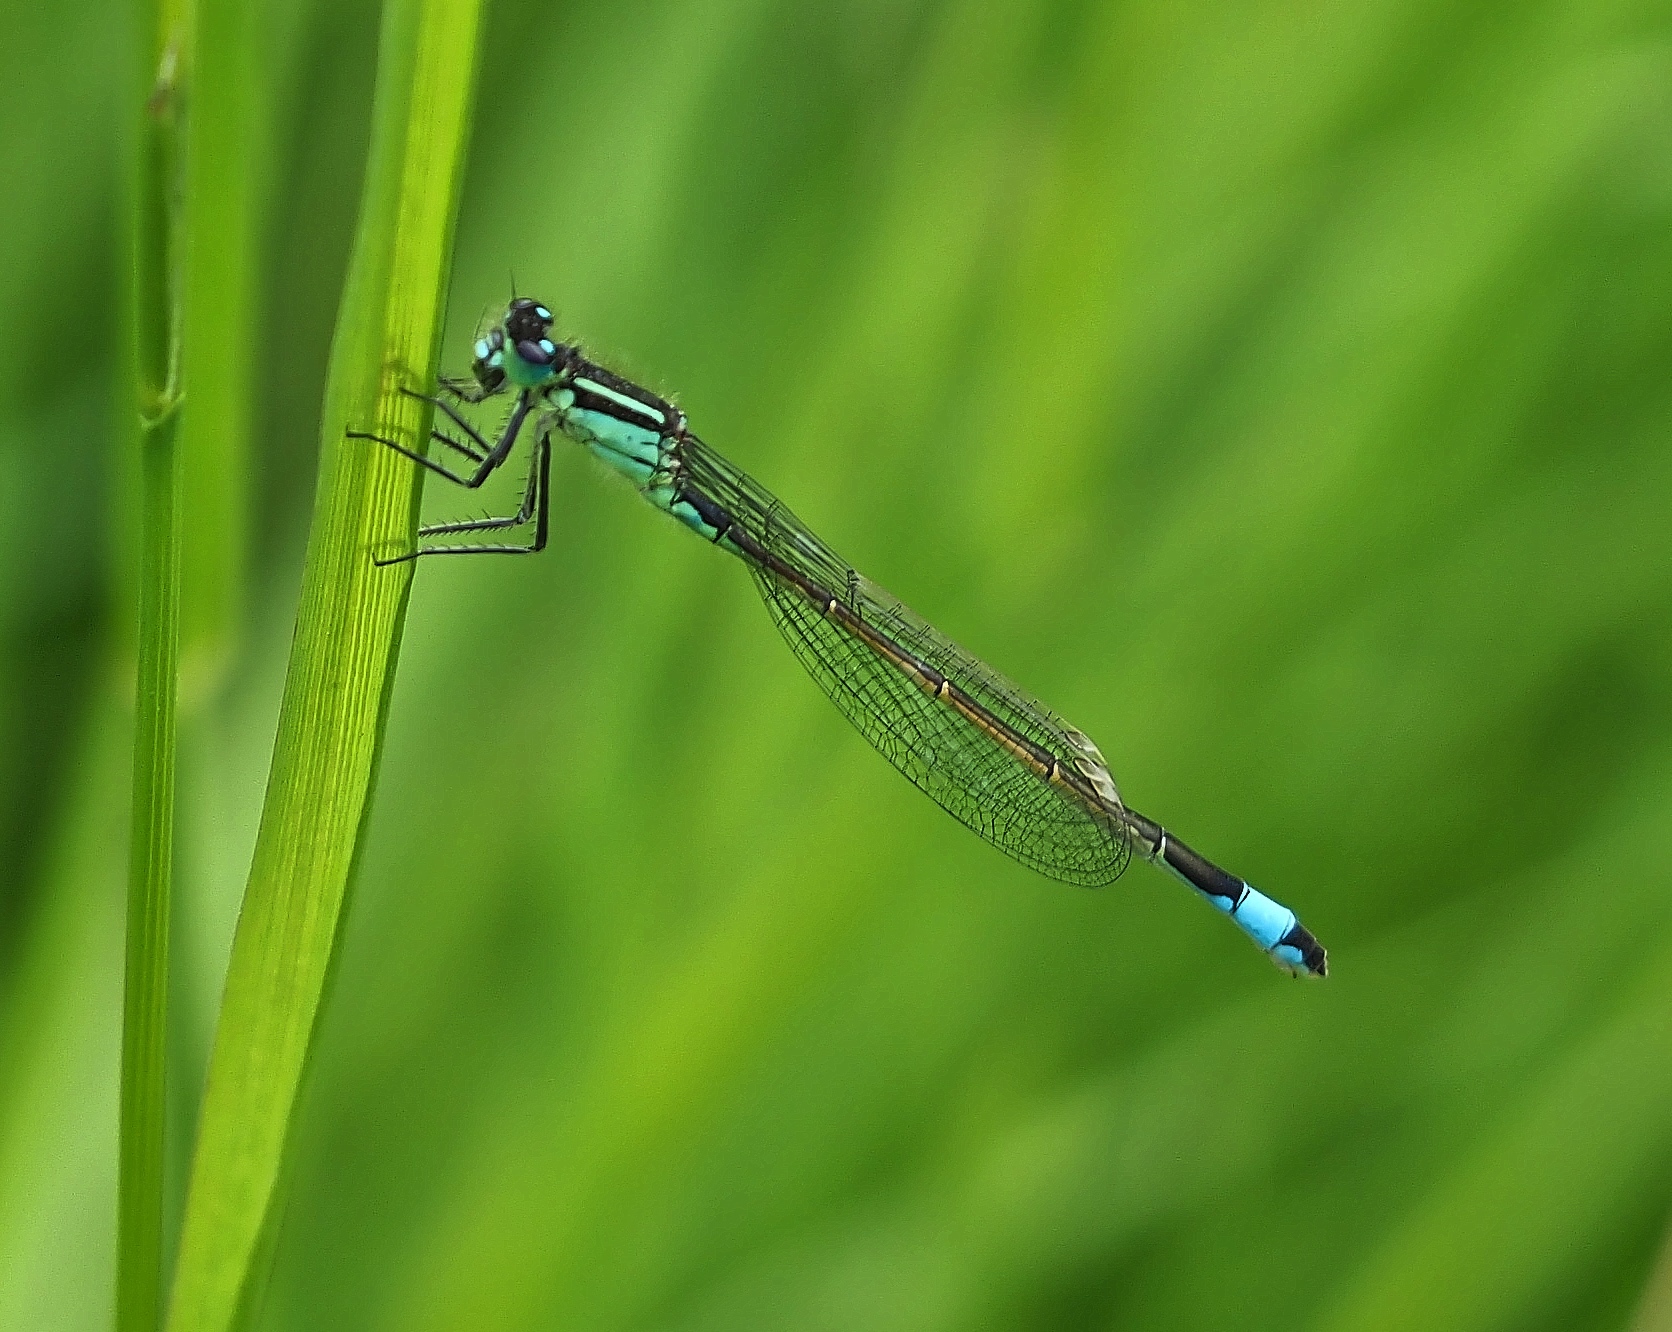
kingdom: Animalia
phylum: Arthropoda
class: Insecta
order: Odonata
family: Coenagrionidae
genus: Ischnura
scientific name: Ischnura elegans
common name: Blue-tailed damselfly
